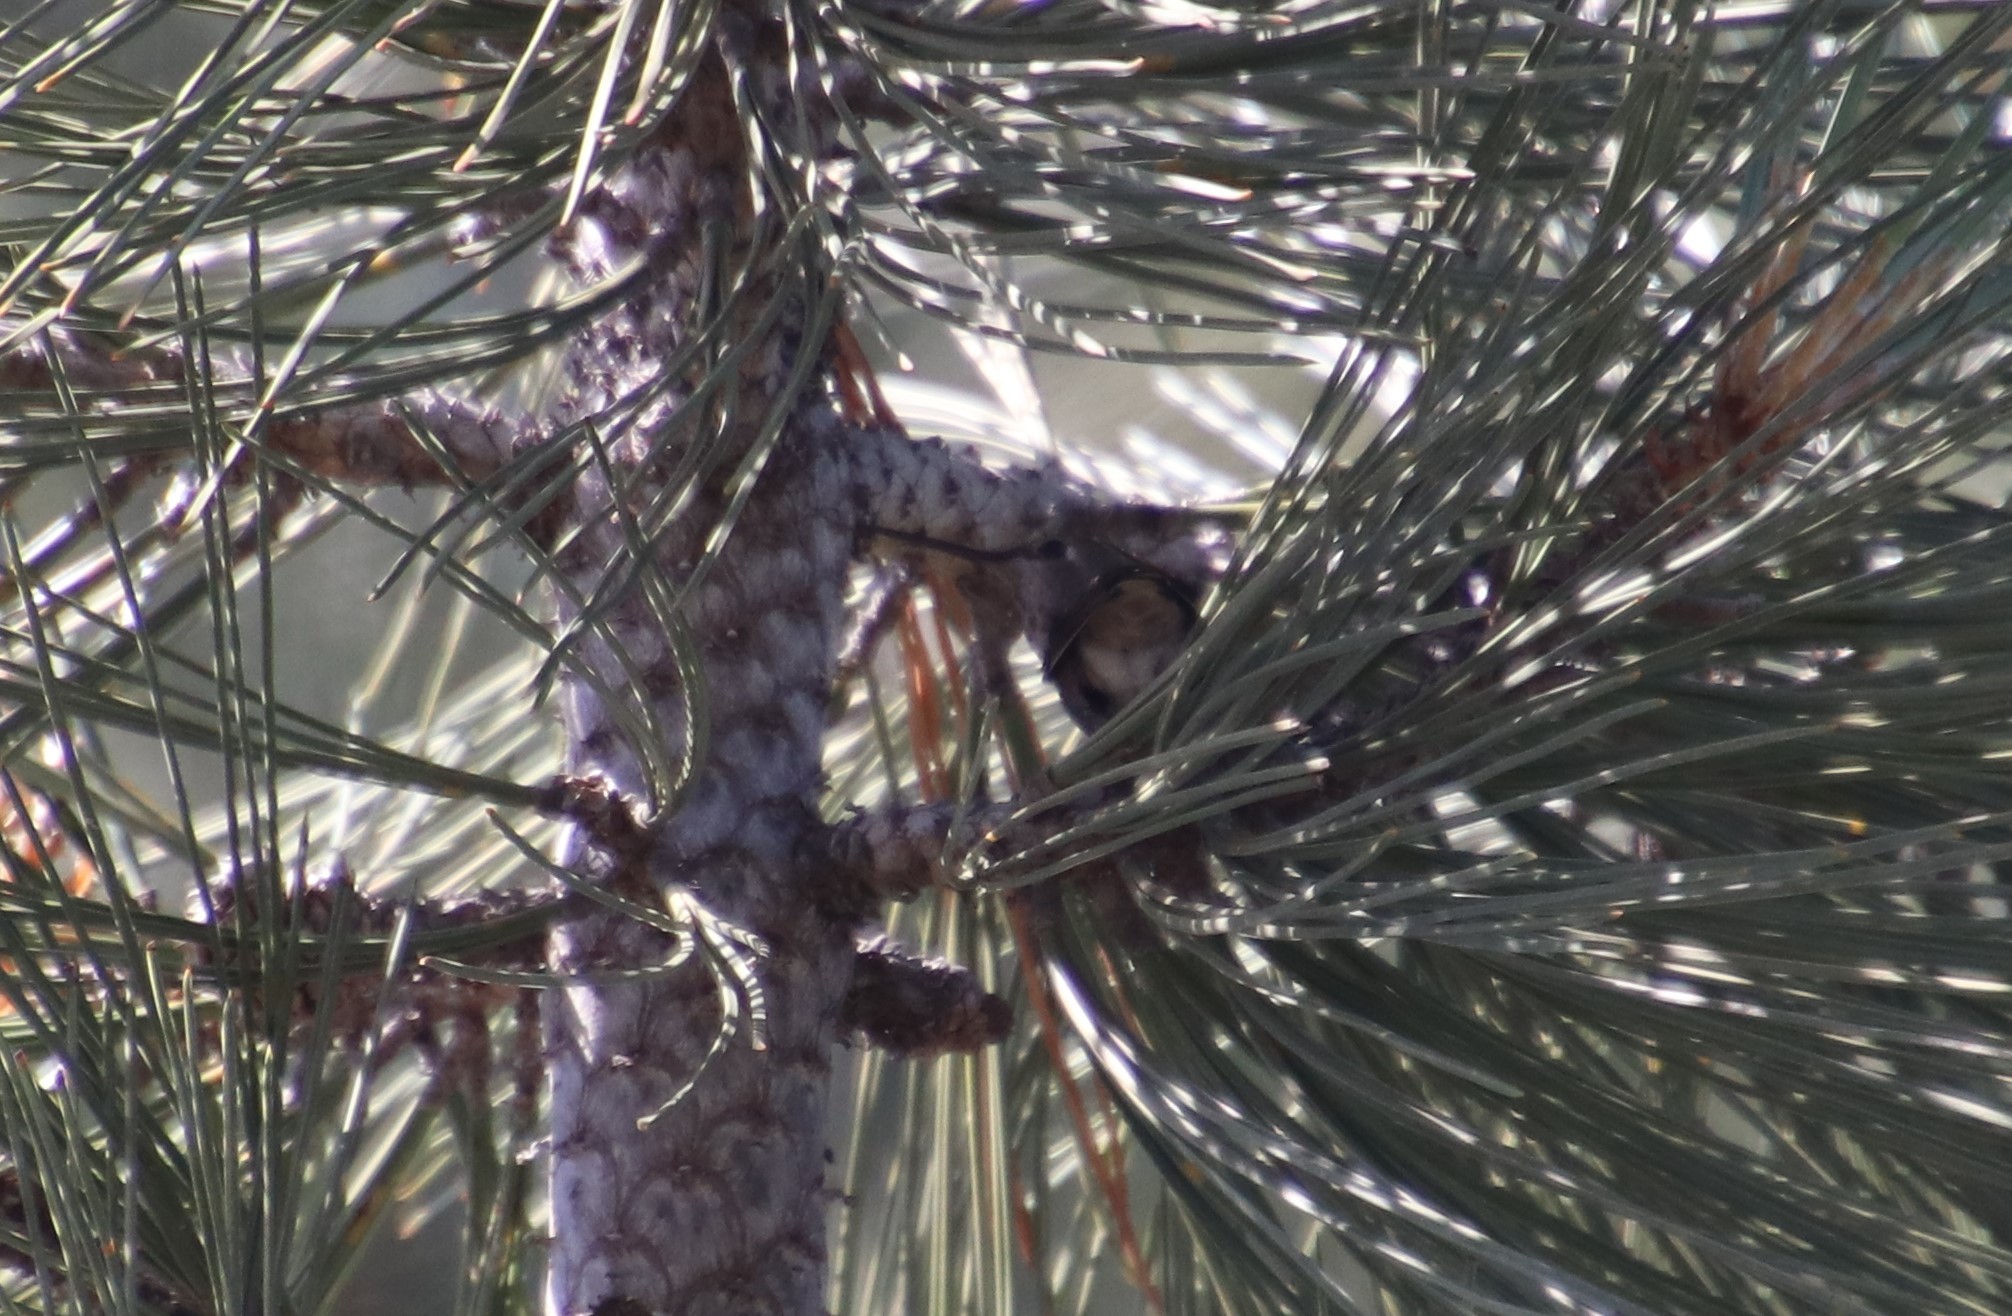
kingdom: Animalia
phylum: Chordata
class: Aves
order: Apodiformes
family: Trochilidae
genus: Calypte
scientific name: Calypte anna
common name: Anna's hummingbird
